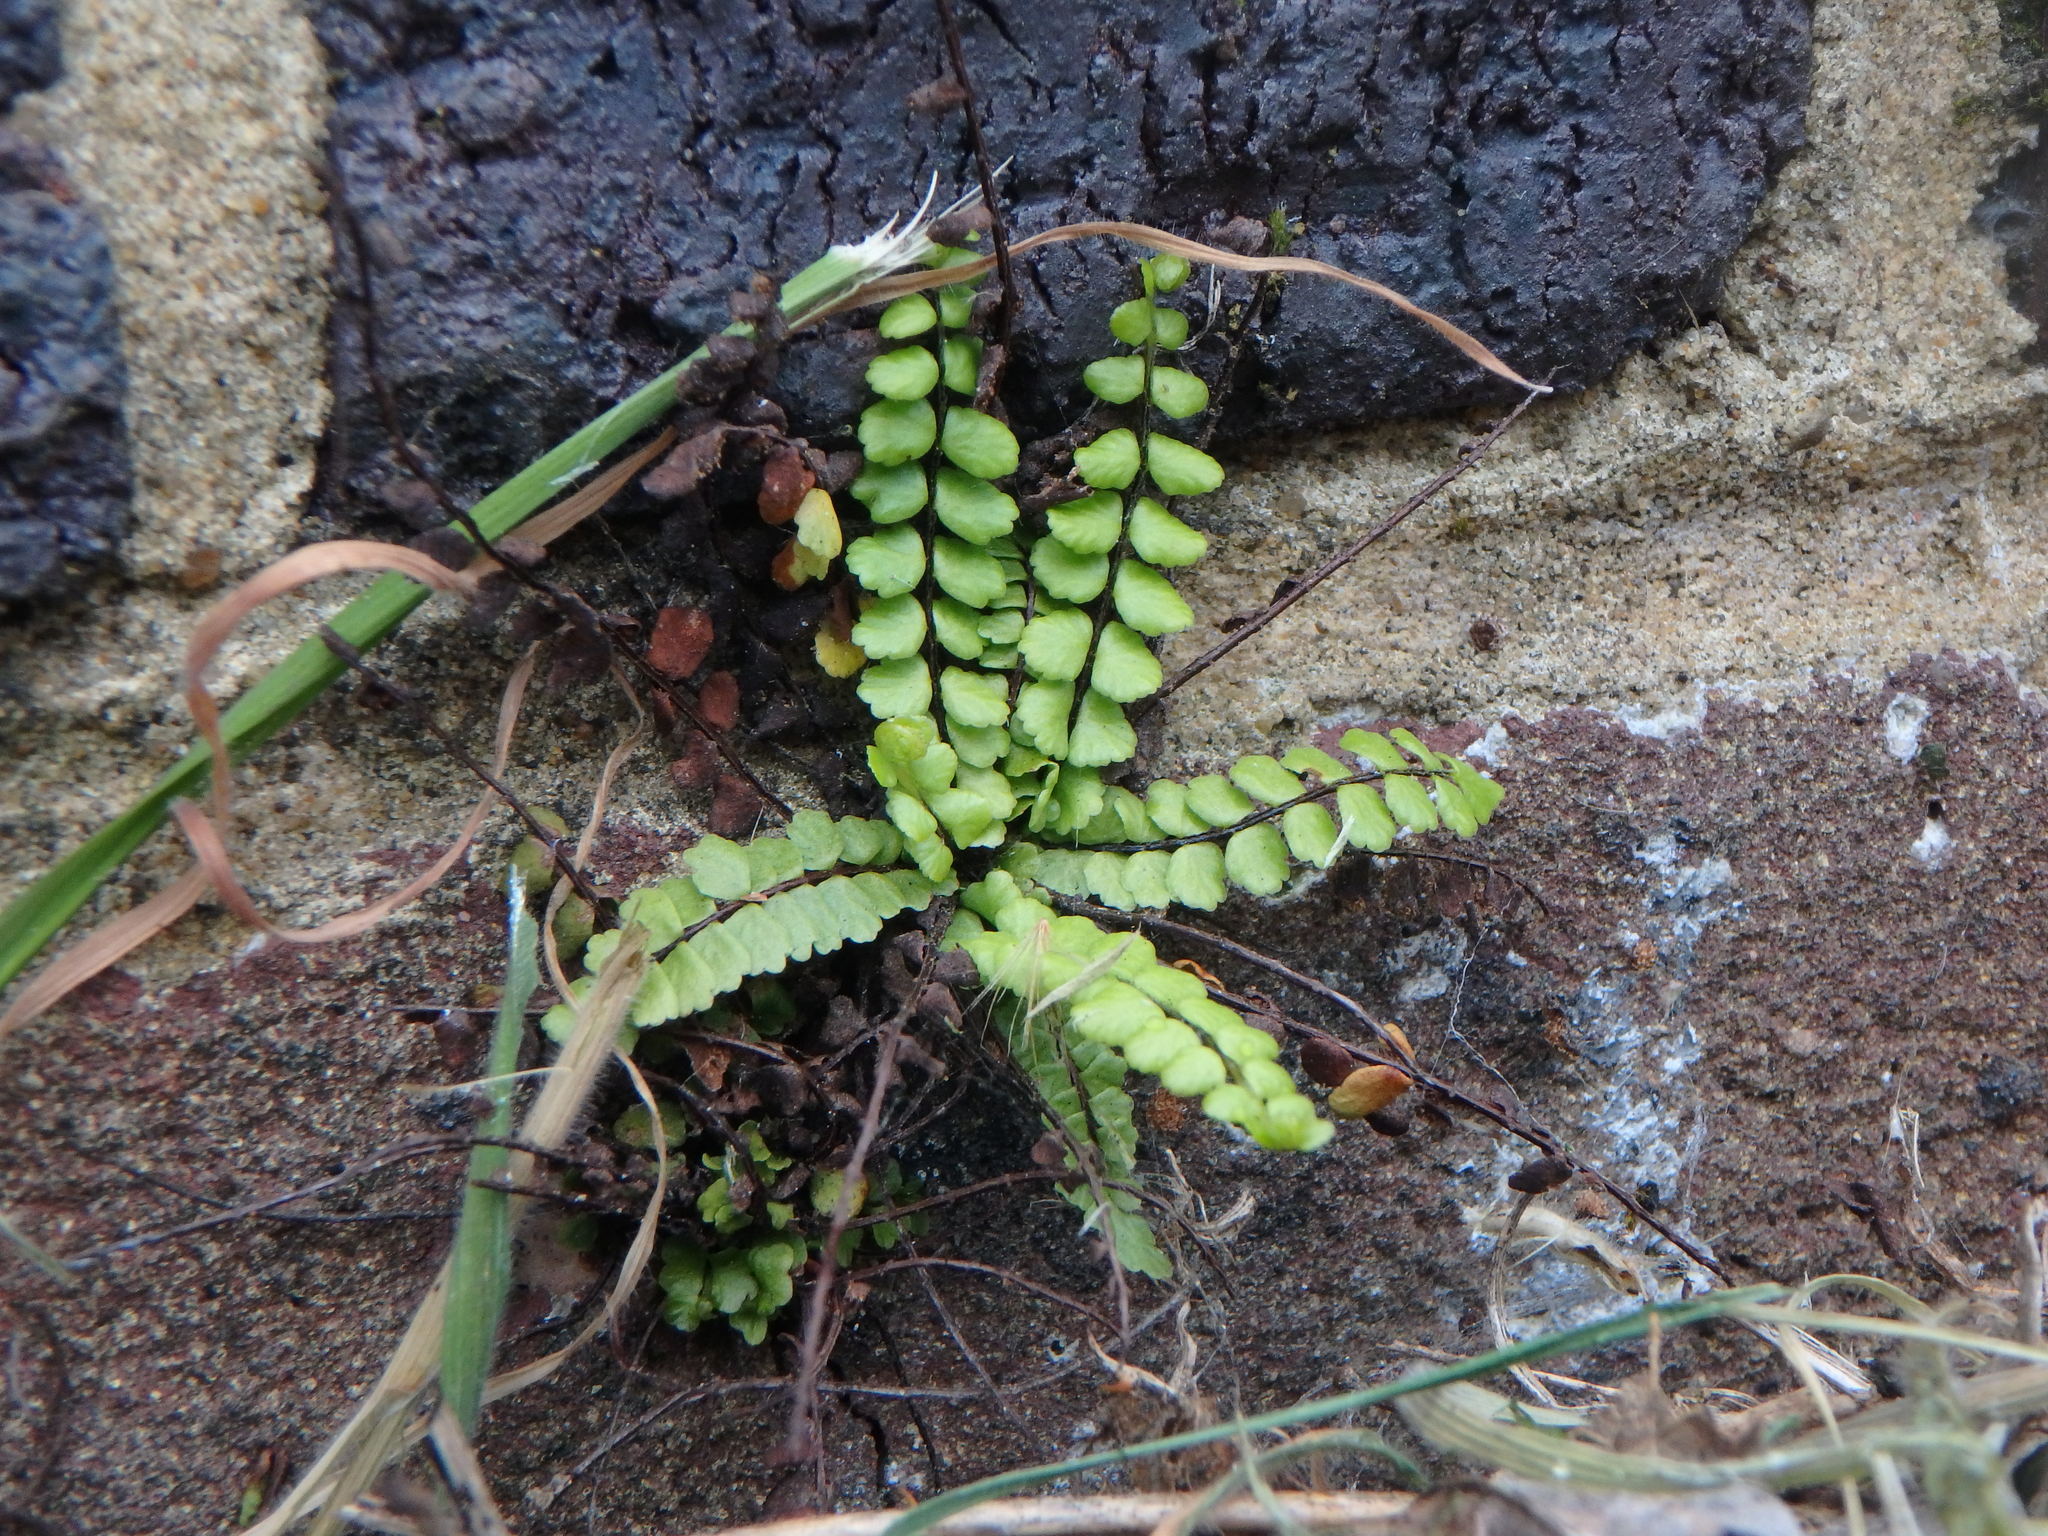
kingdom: Plantae
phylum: Tracheophyta
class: Polypodiopsida
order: Polypodiales
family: Aspleniaceae
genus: Asplenium
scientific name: Asplenium trichomanes
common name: Maidenhair spleenwort
